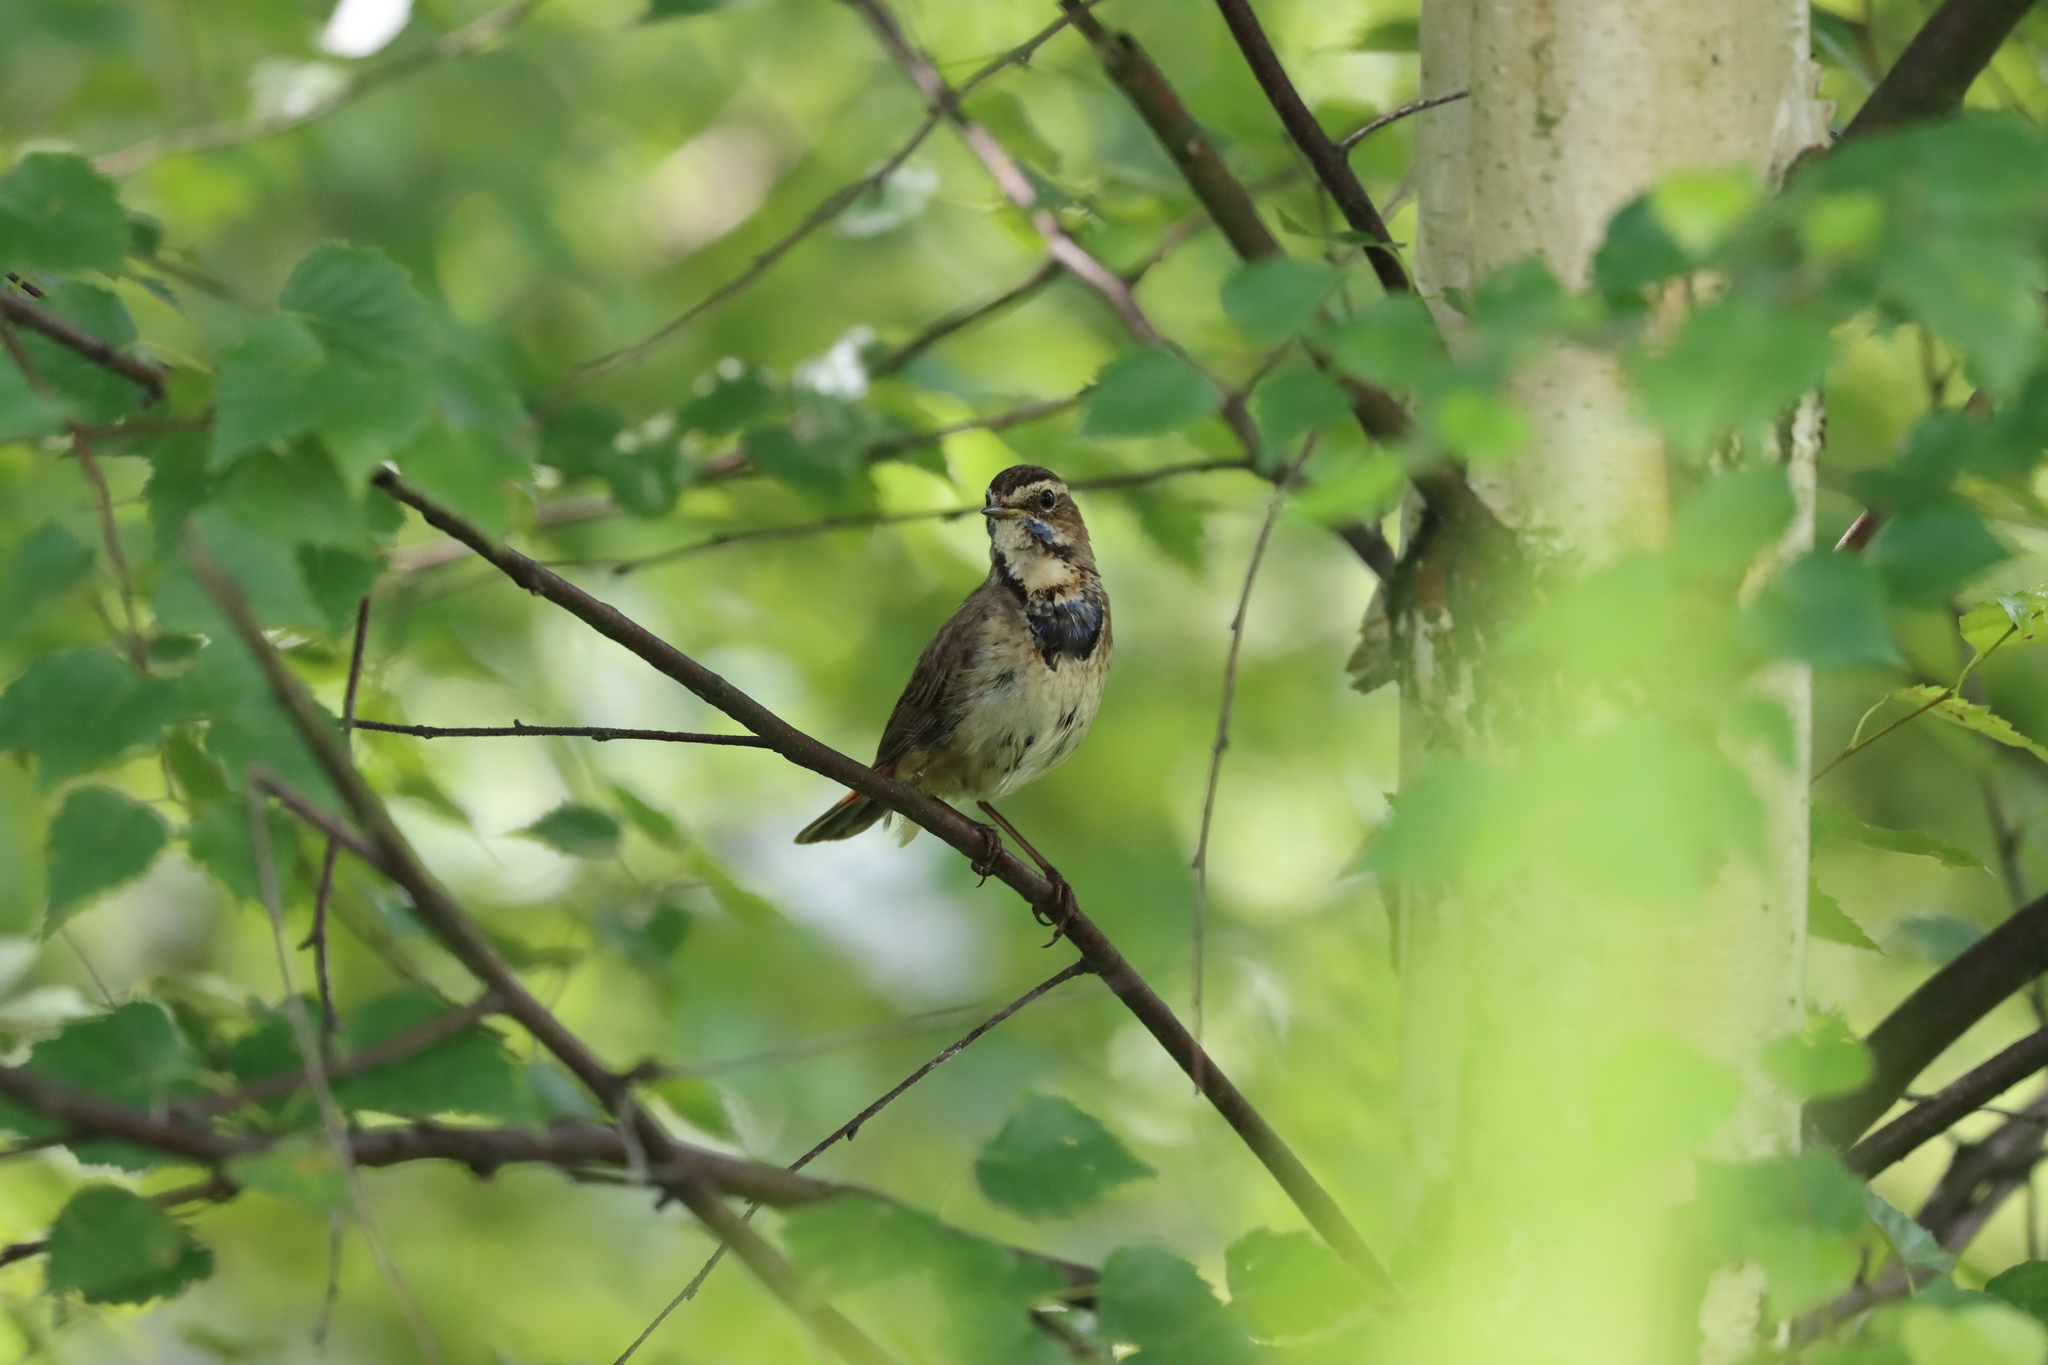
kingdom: Animalia
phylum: Chordata
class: Aves
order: Passeriformes
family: Muscicapidae
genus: Luscinia
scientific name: Luscinia svecica
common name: Bluethroat
